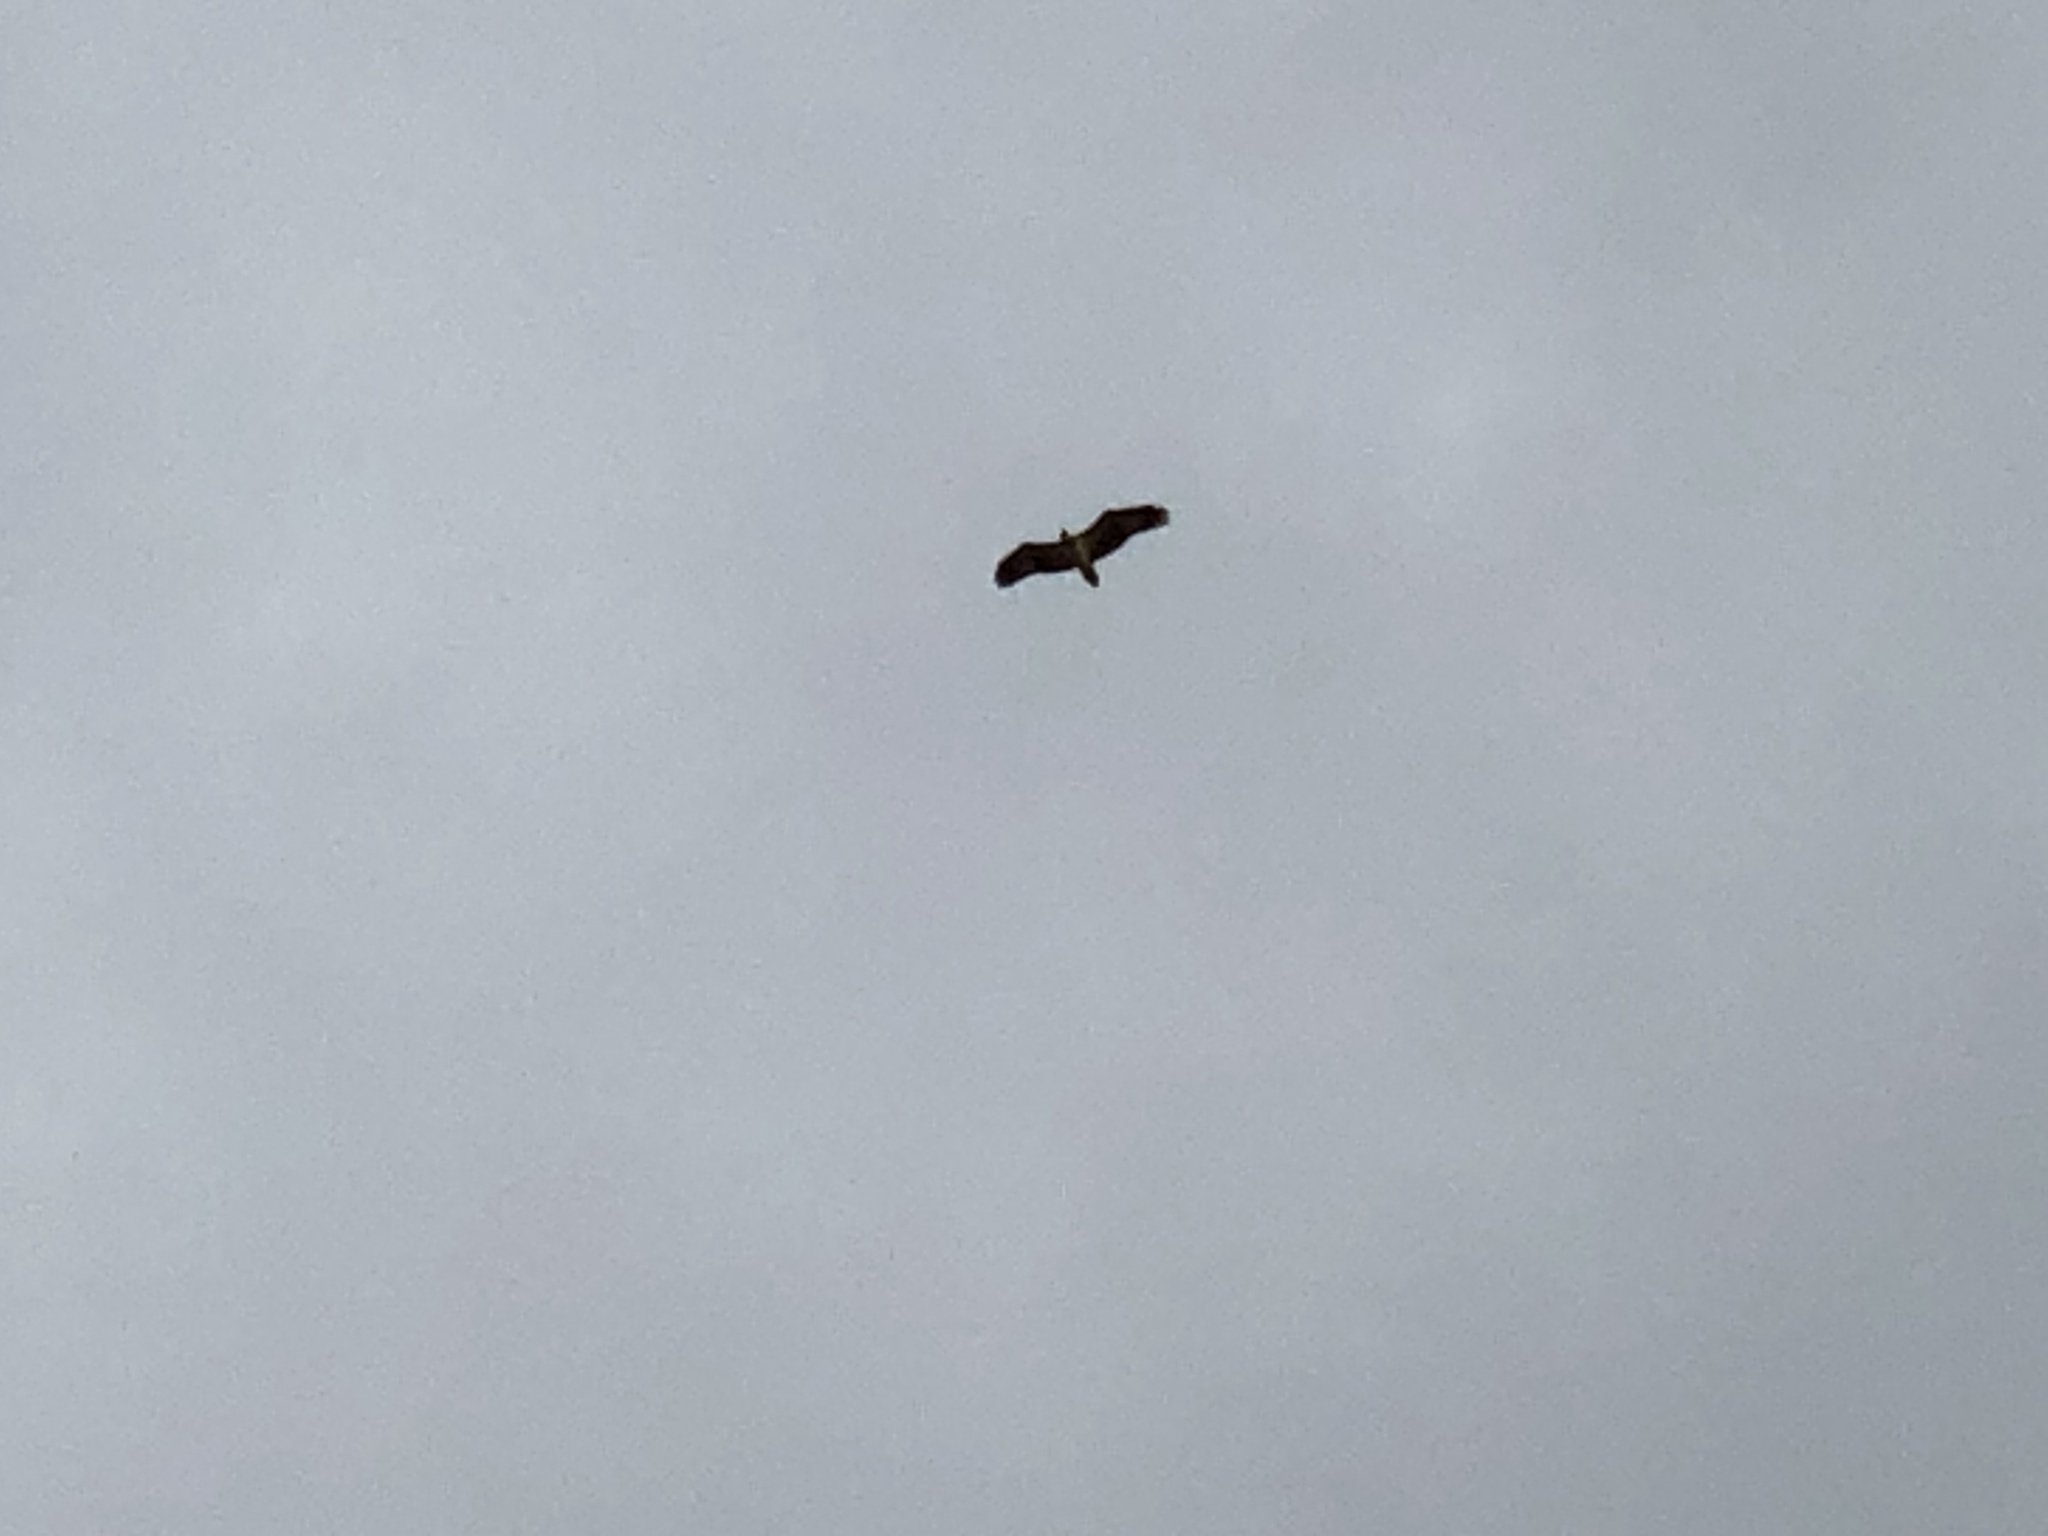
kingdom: Animalia
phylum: Chordata
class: Aves
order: Accipitriformes
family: Accipitridae
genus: Haliaeetus
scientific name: Haliaeetus leucogaster
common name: White-bellied sea eagle
